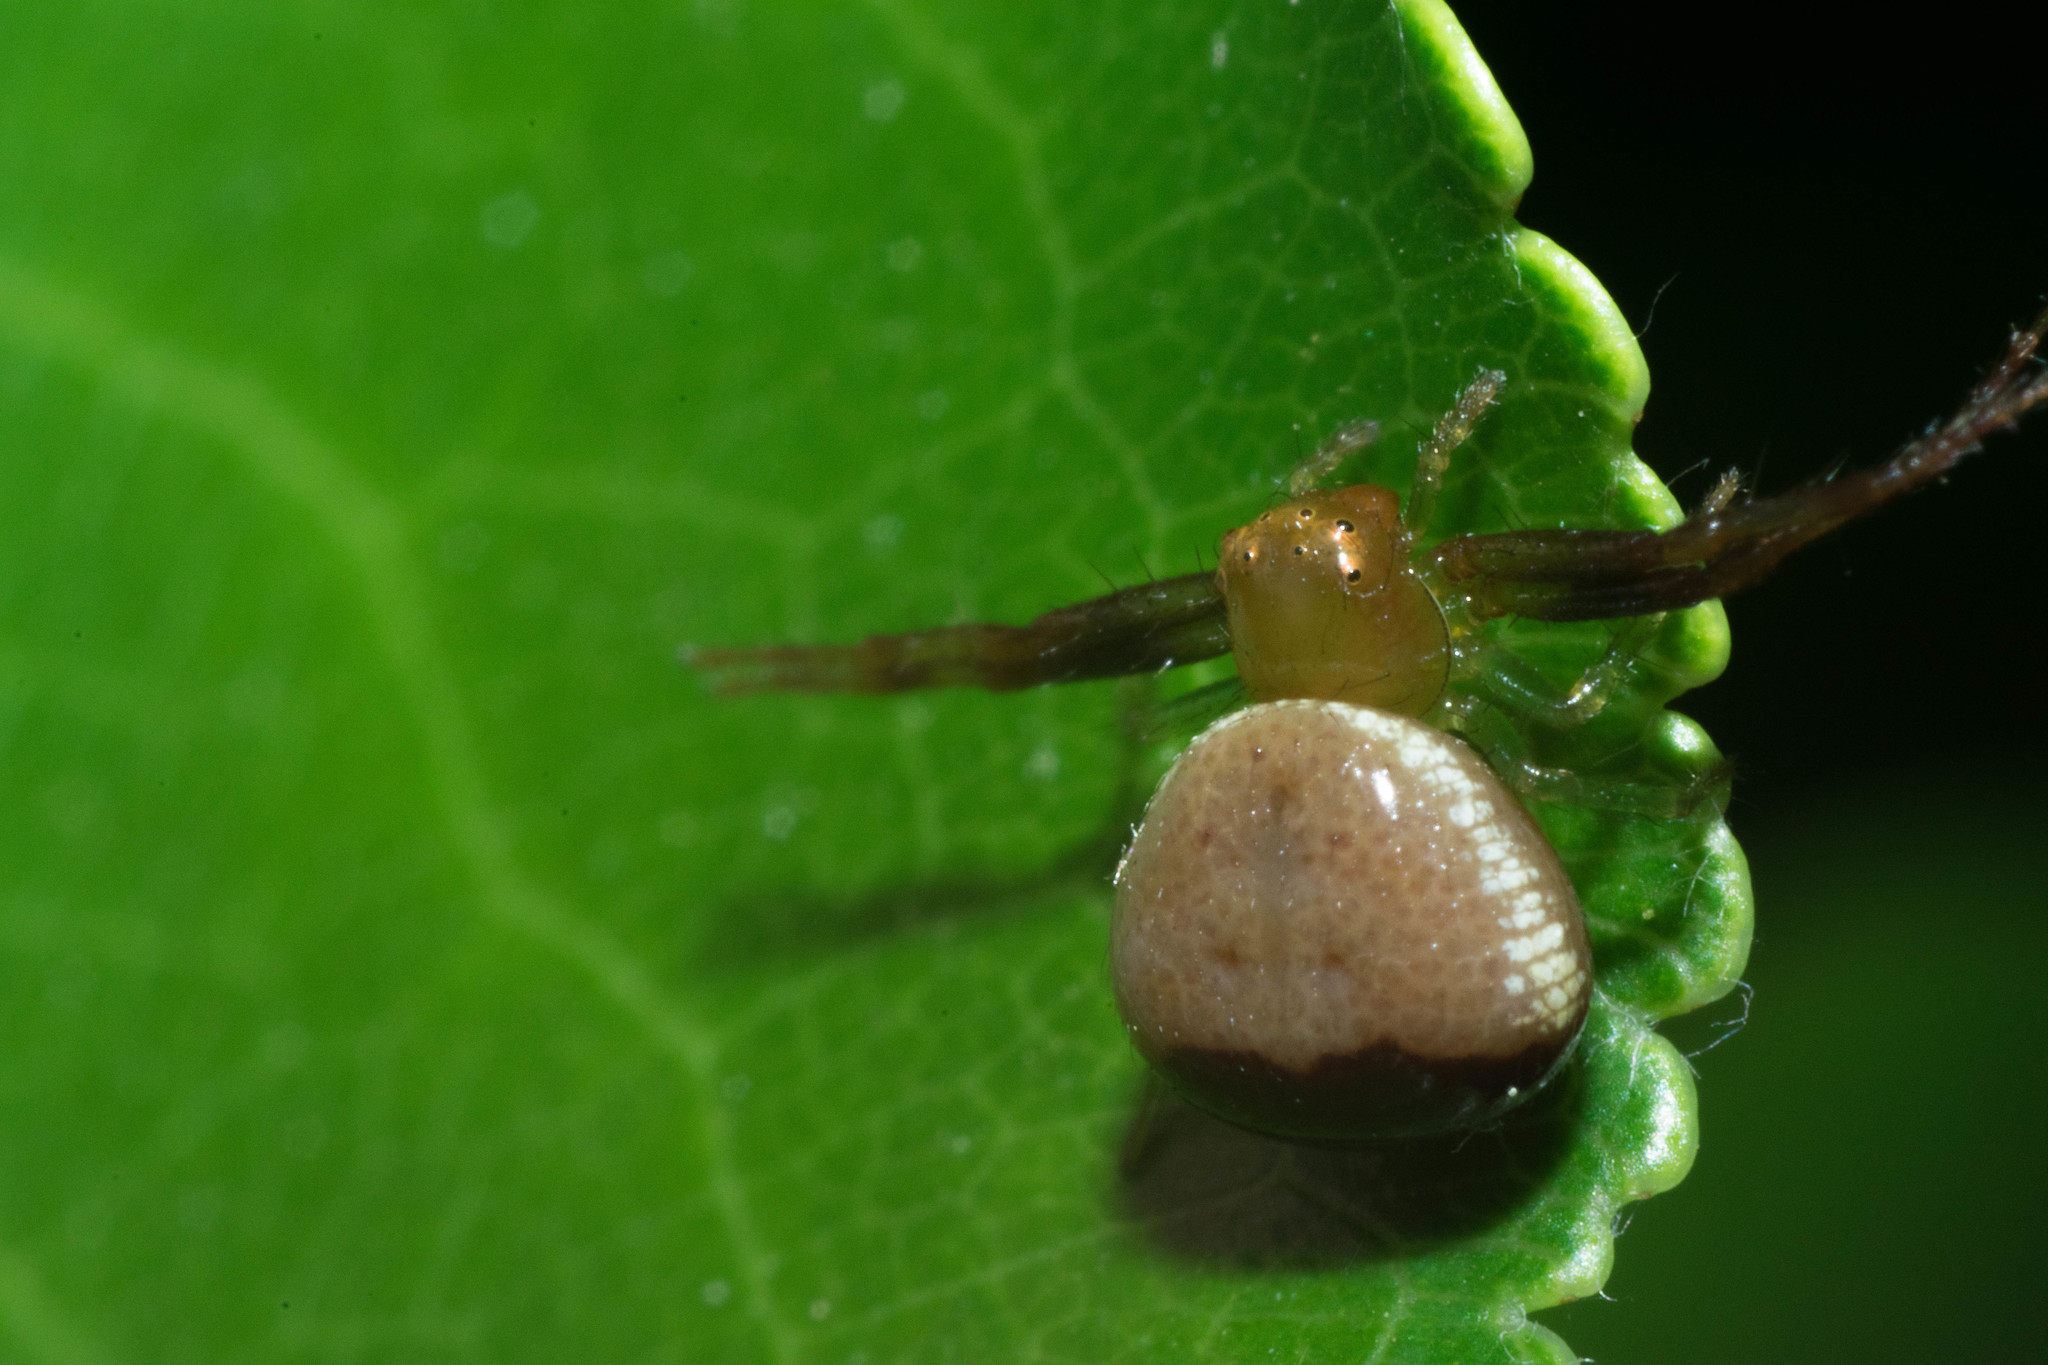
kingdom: Animalia
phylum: Arthropoda
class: Arachnida
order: Araneae
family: Thomisidae
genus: Synema
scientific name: Synema parvulum
